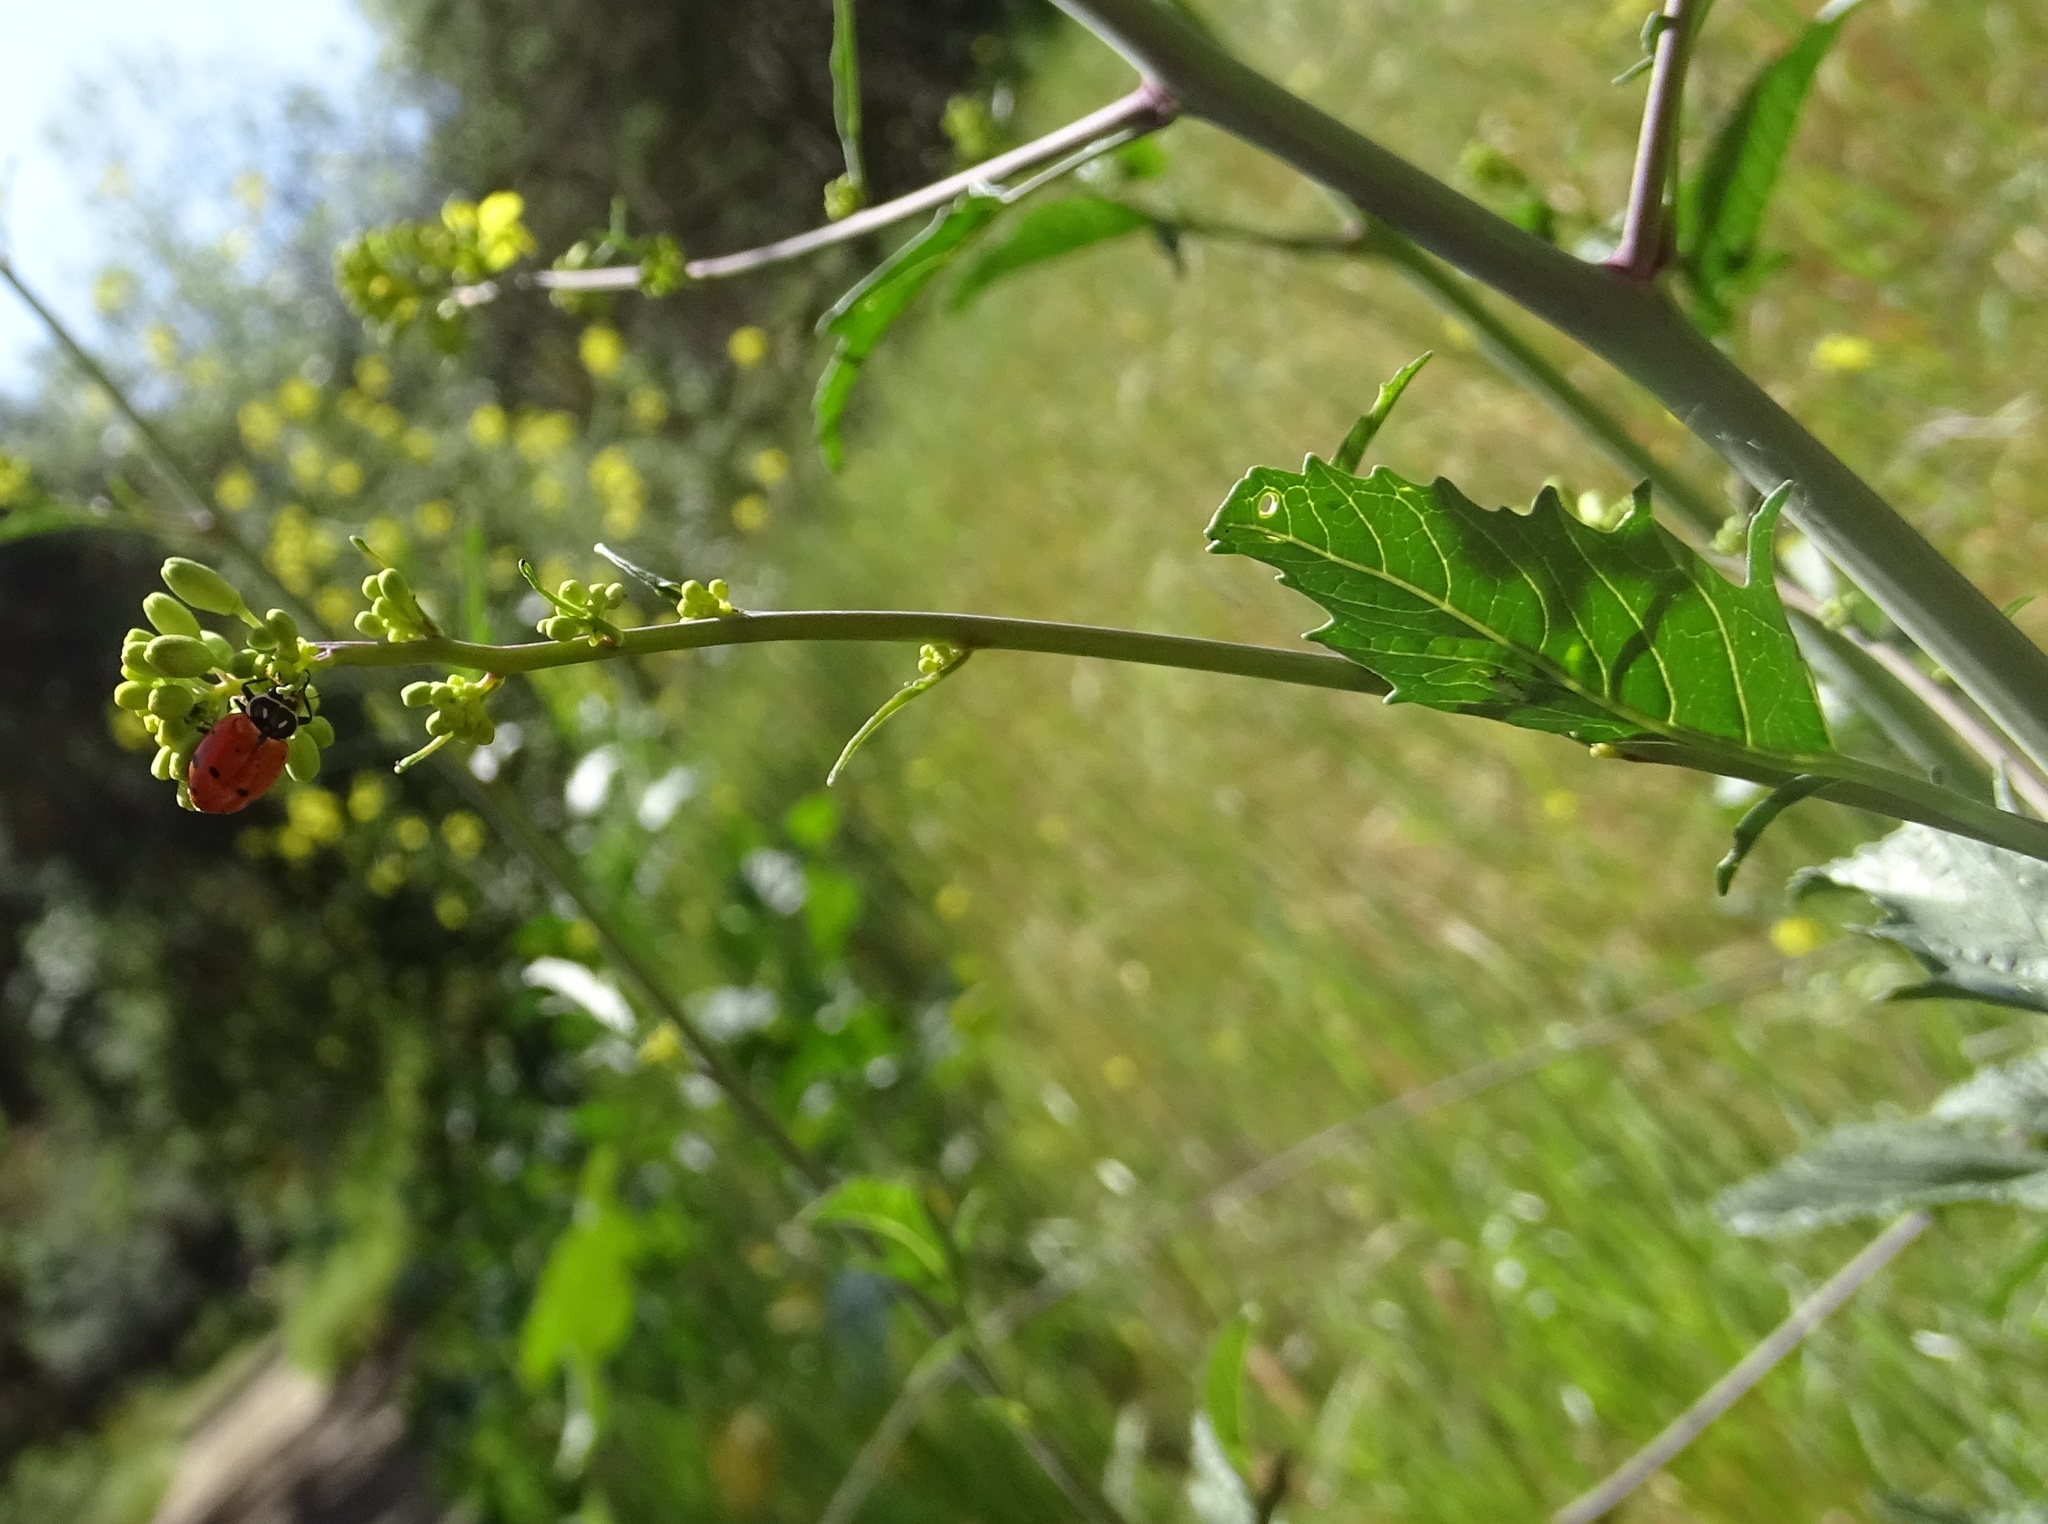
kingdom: Animalia
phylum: Arthropoda
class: Insecta
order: Coleoptera
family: Coccinellidae
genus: Hippodamia
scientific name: Hippodamia convergens
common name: Convergent lady beetle
